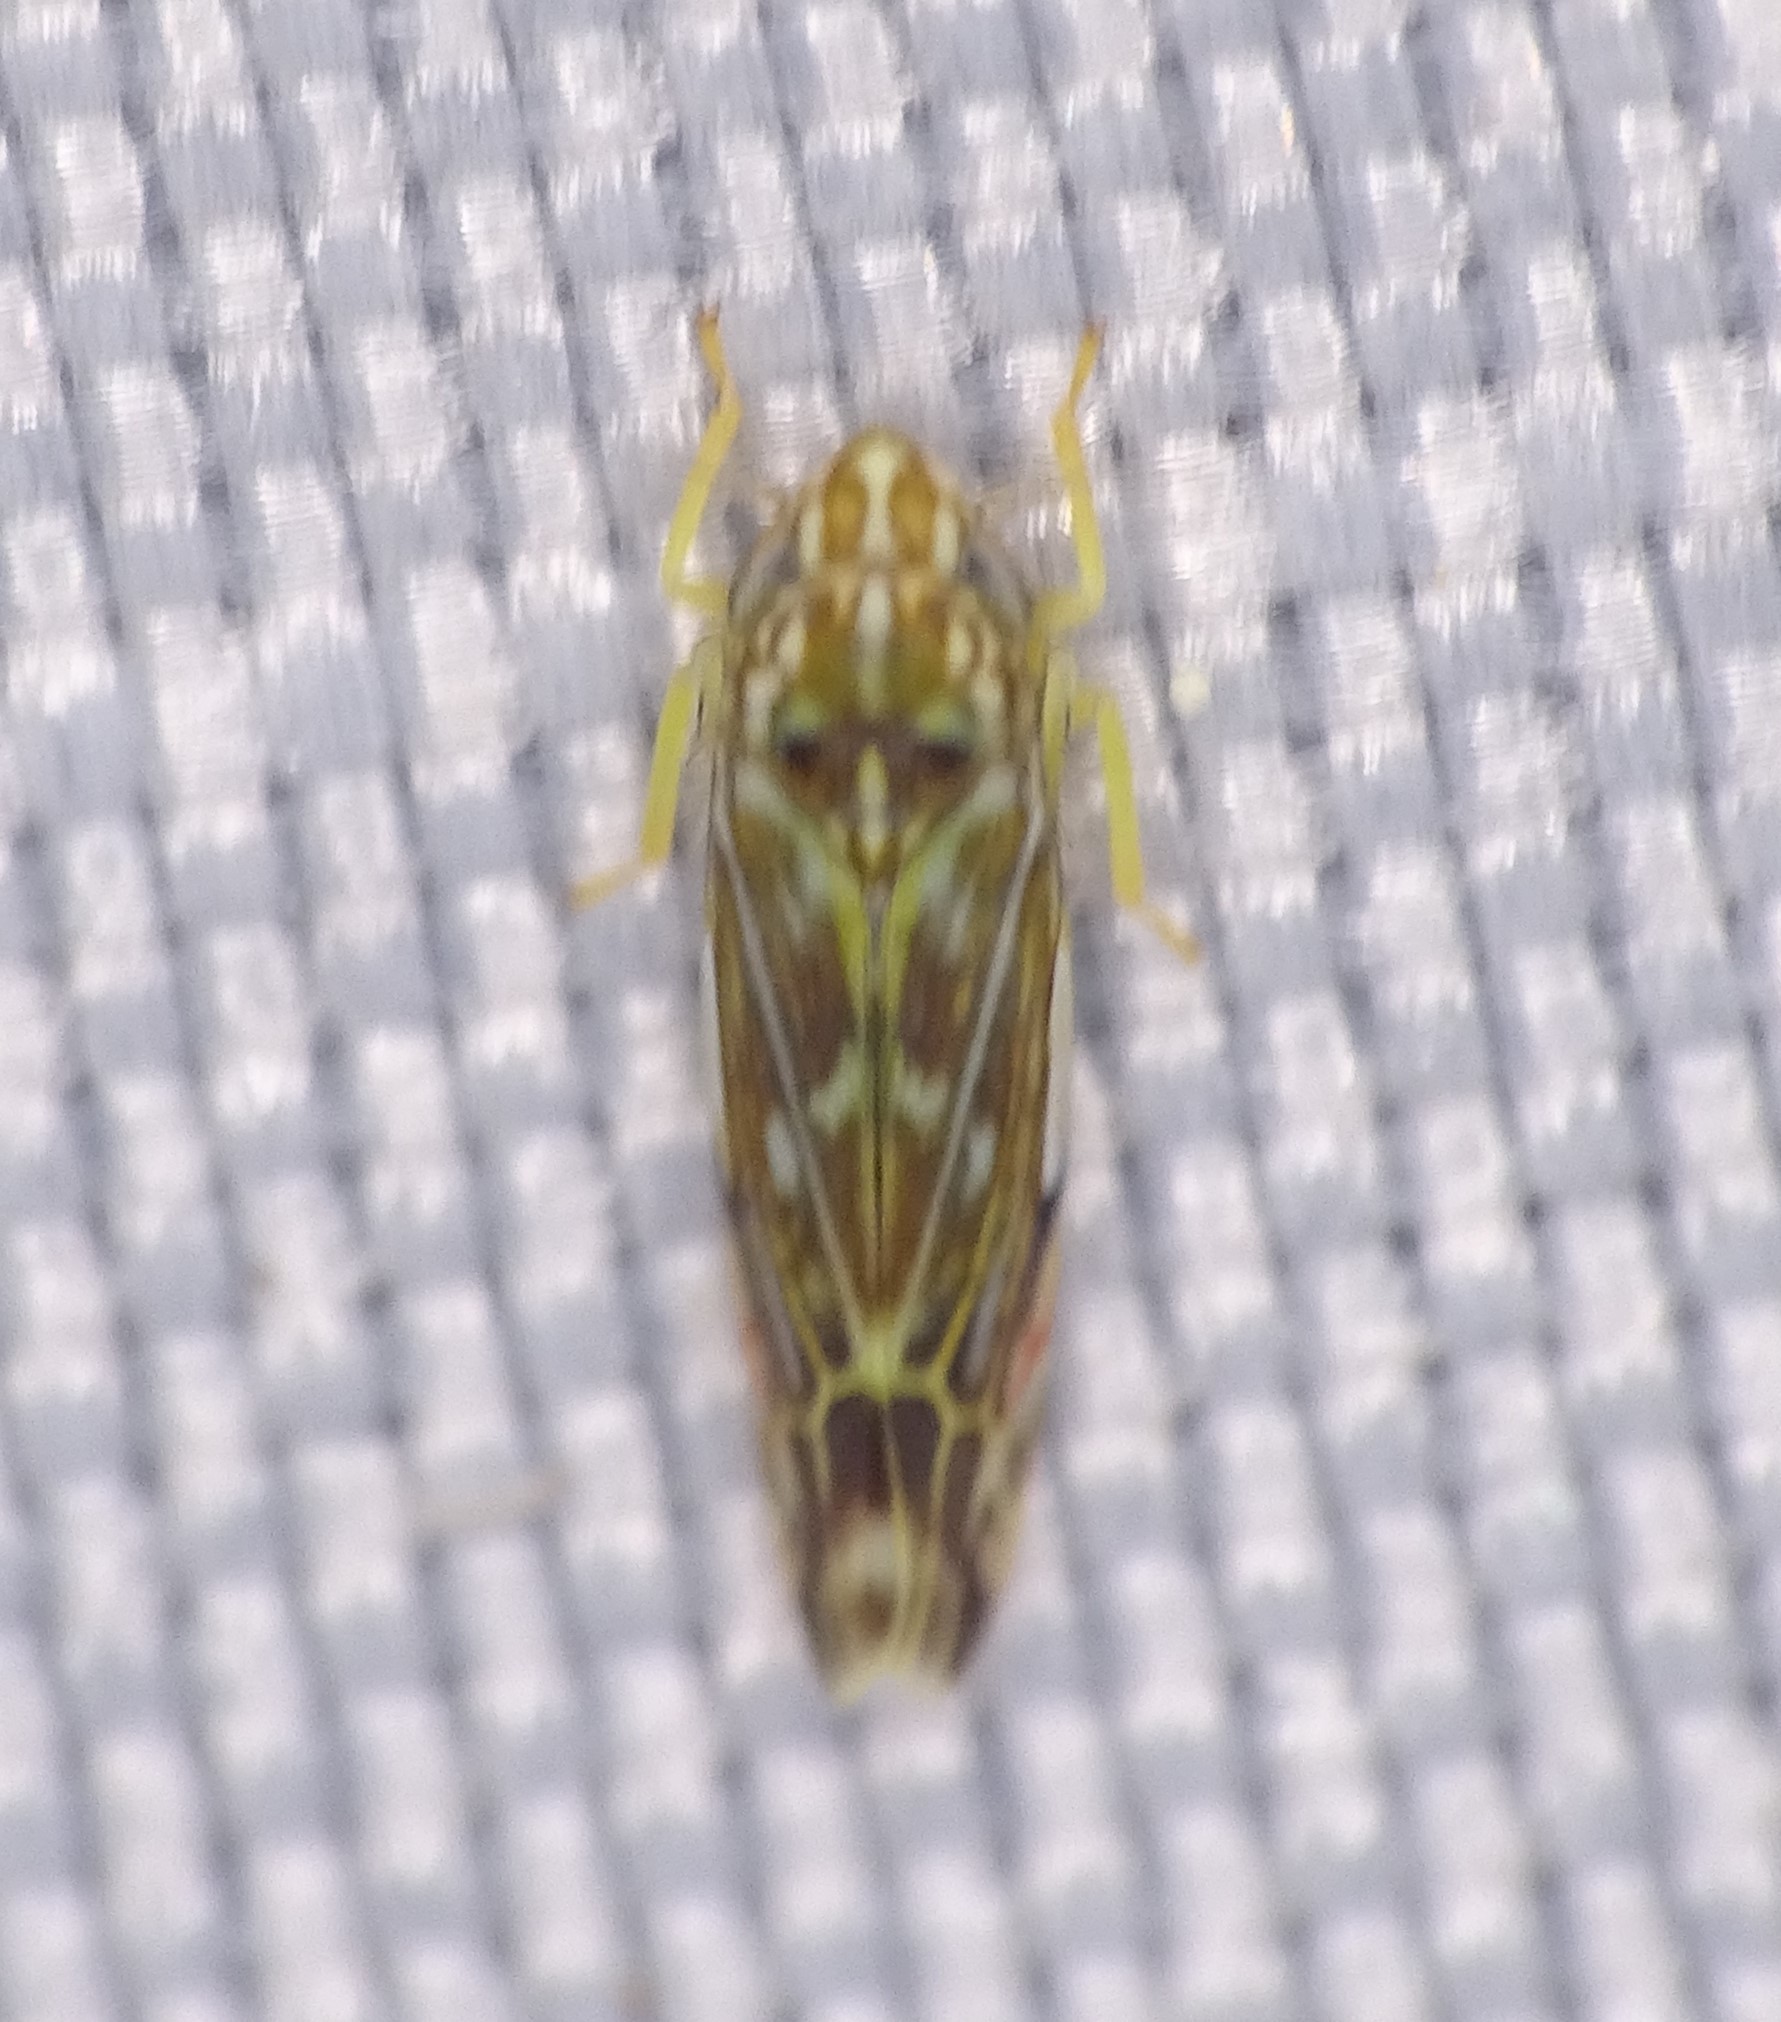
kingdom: Animalia
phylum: Arthropoda
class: Insecta
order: Hemiptera
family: Cicadellidae
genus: Erasmoneura
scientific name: Erasmoneura vulnerata
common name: The wounded leafhopper
